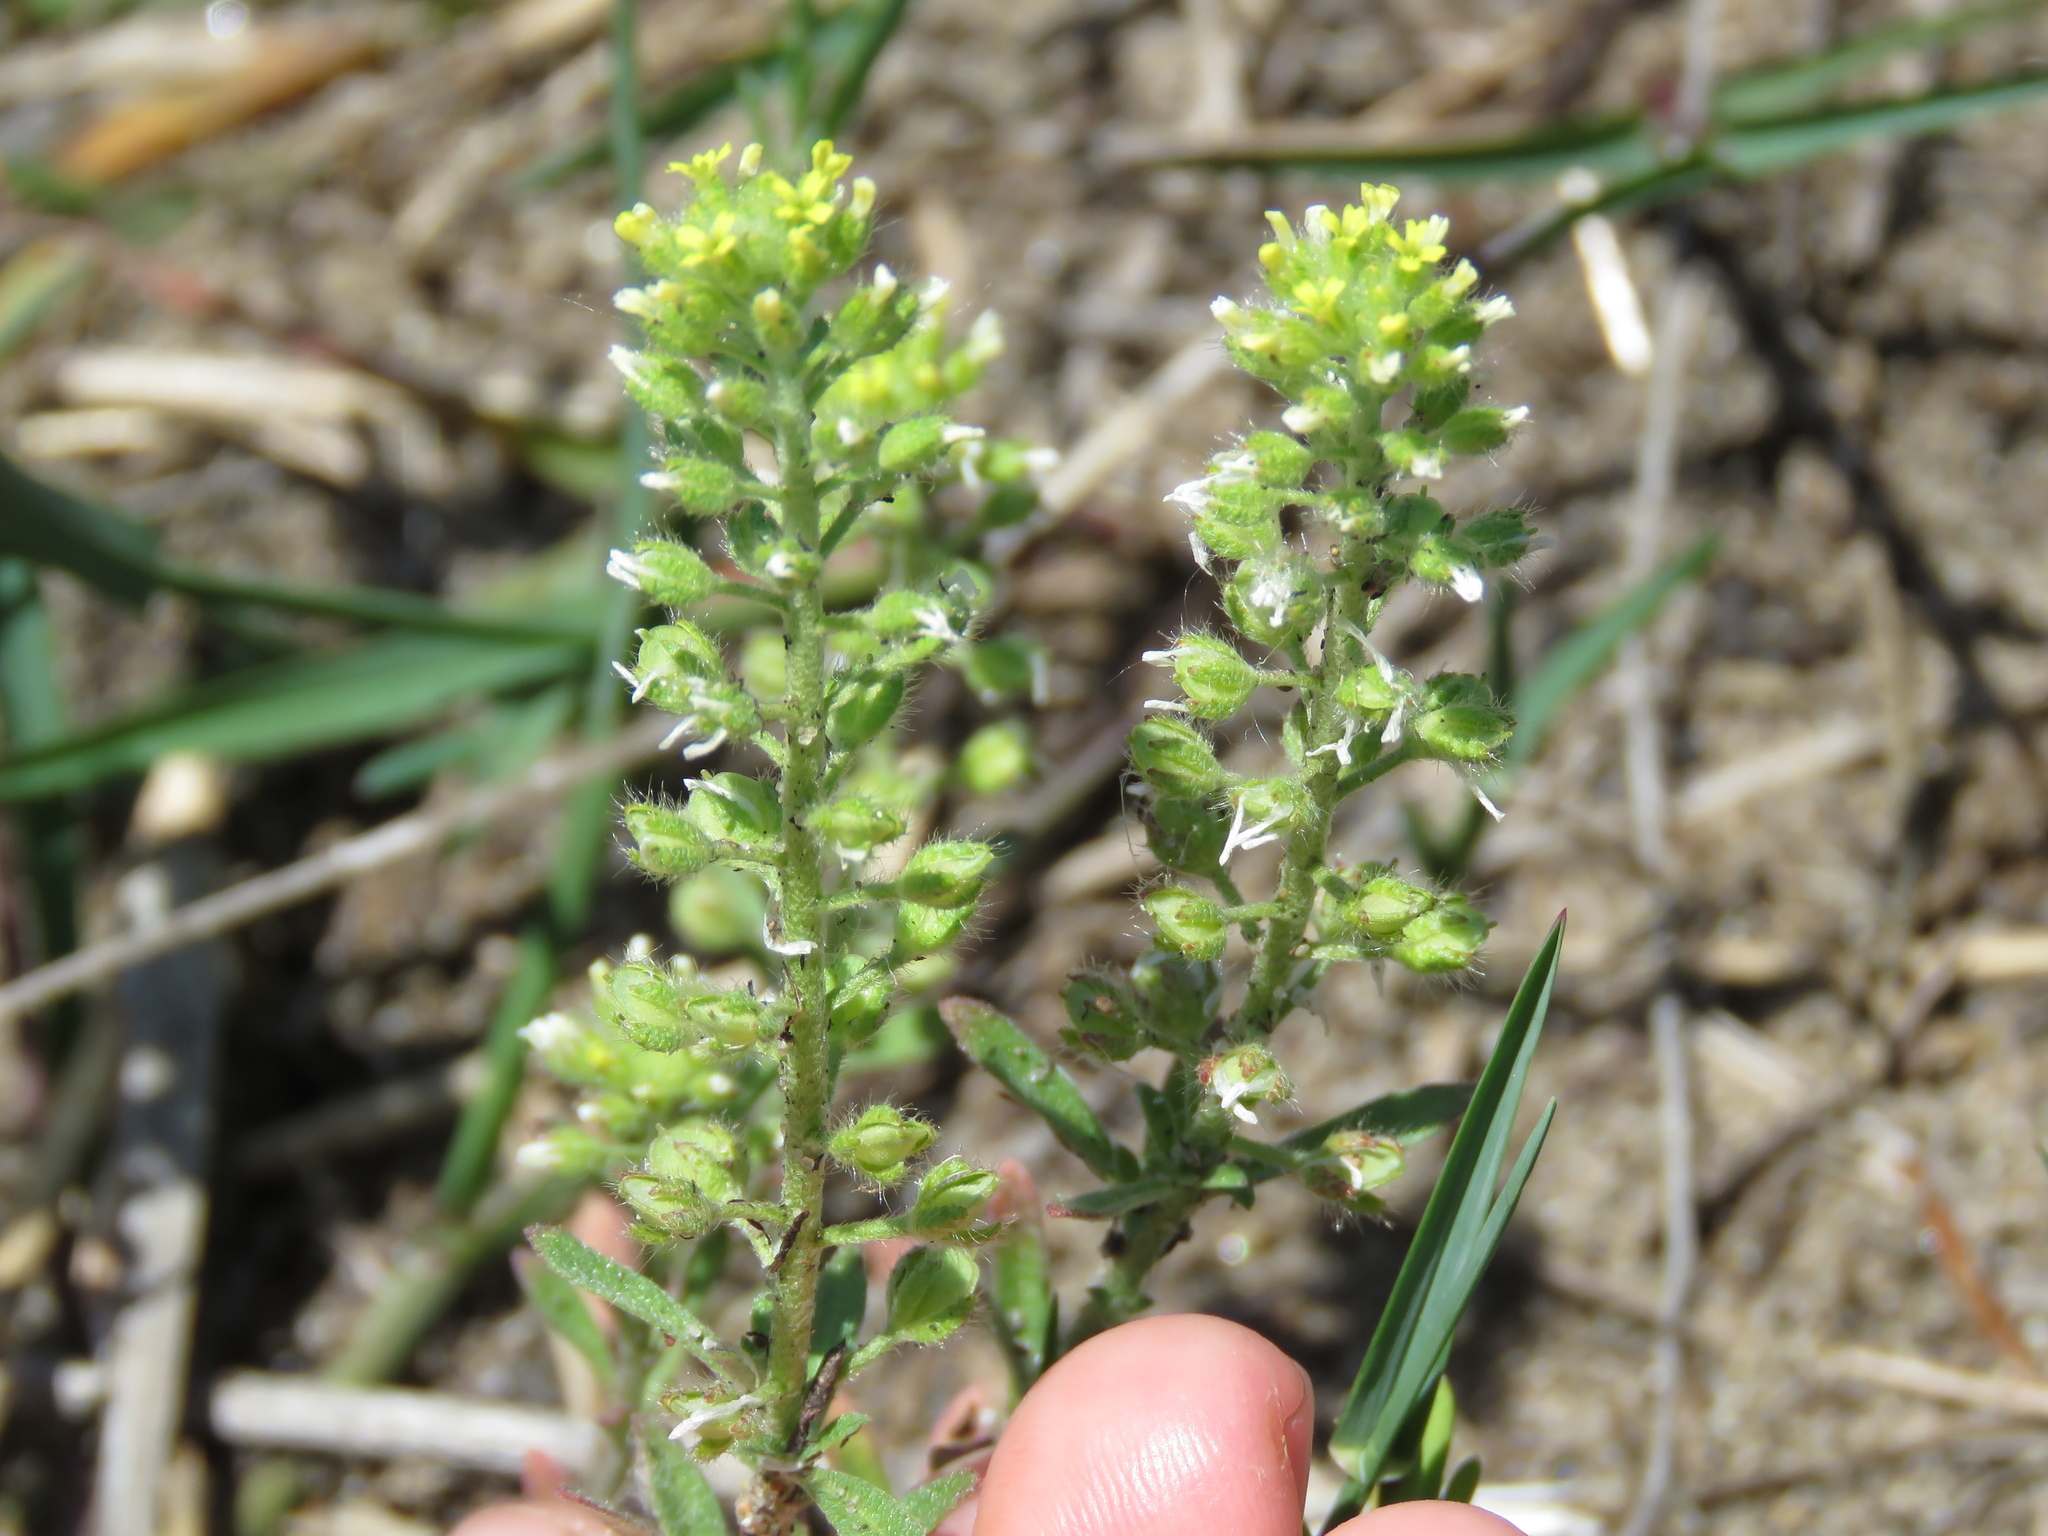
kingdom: Plantae
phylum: Tracheophyta
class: Magnoliopsida
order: Brassicales
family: Brassicaceae
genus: Alyssum
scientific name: Alyssum alyssoides
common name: Small alison
